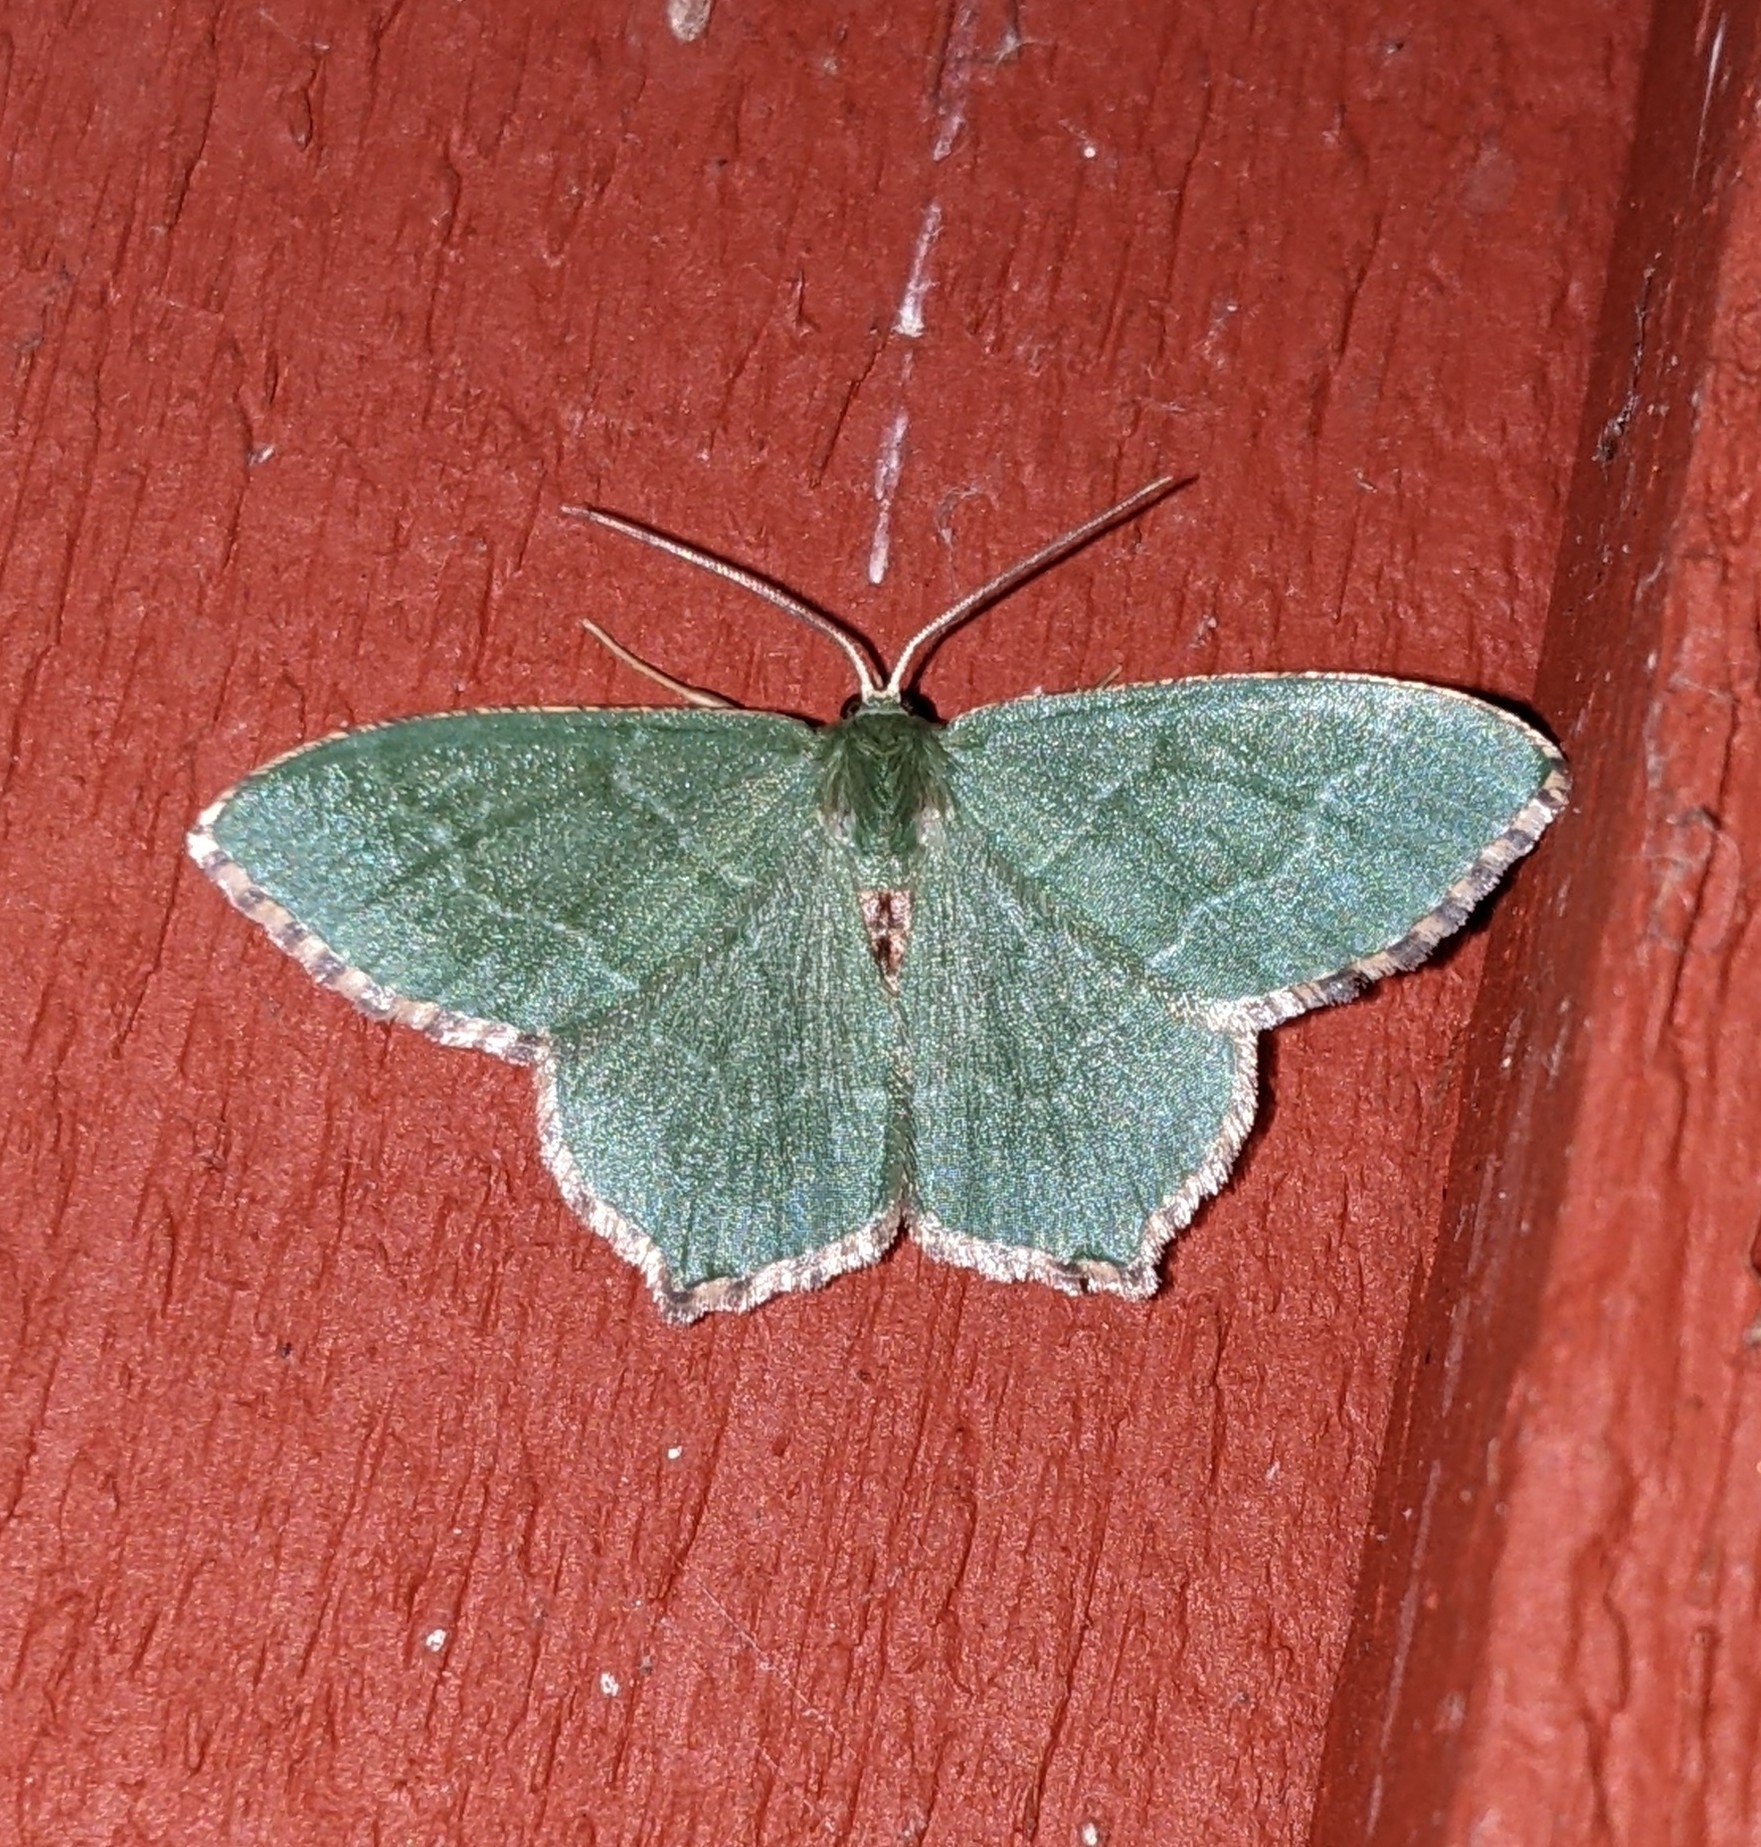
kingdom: Animalia
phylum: Arthropoda
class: Insecta
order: Lepidoptera
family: Geometridae
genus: Hemithea
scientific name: Hemithea aestivaria
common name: Common emerald
